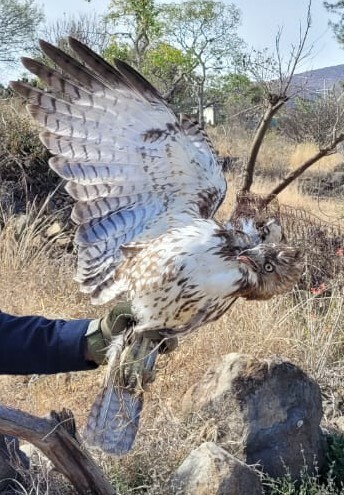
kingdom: Animalia
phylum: Chordata
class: Aves
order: Accipitriformes
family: Accipitridae
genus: Buteo
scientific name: Buteo jamaicensis
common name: Red-tailed hawk
